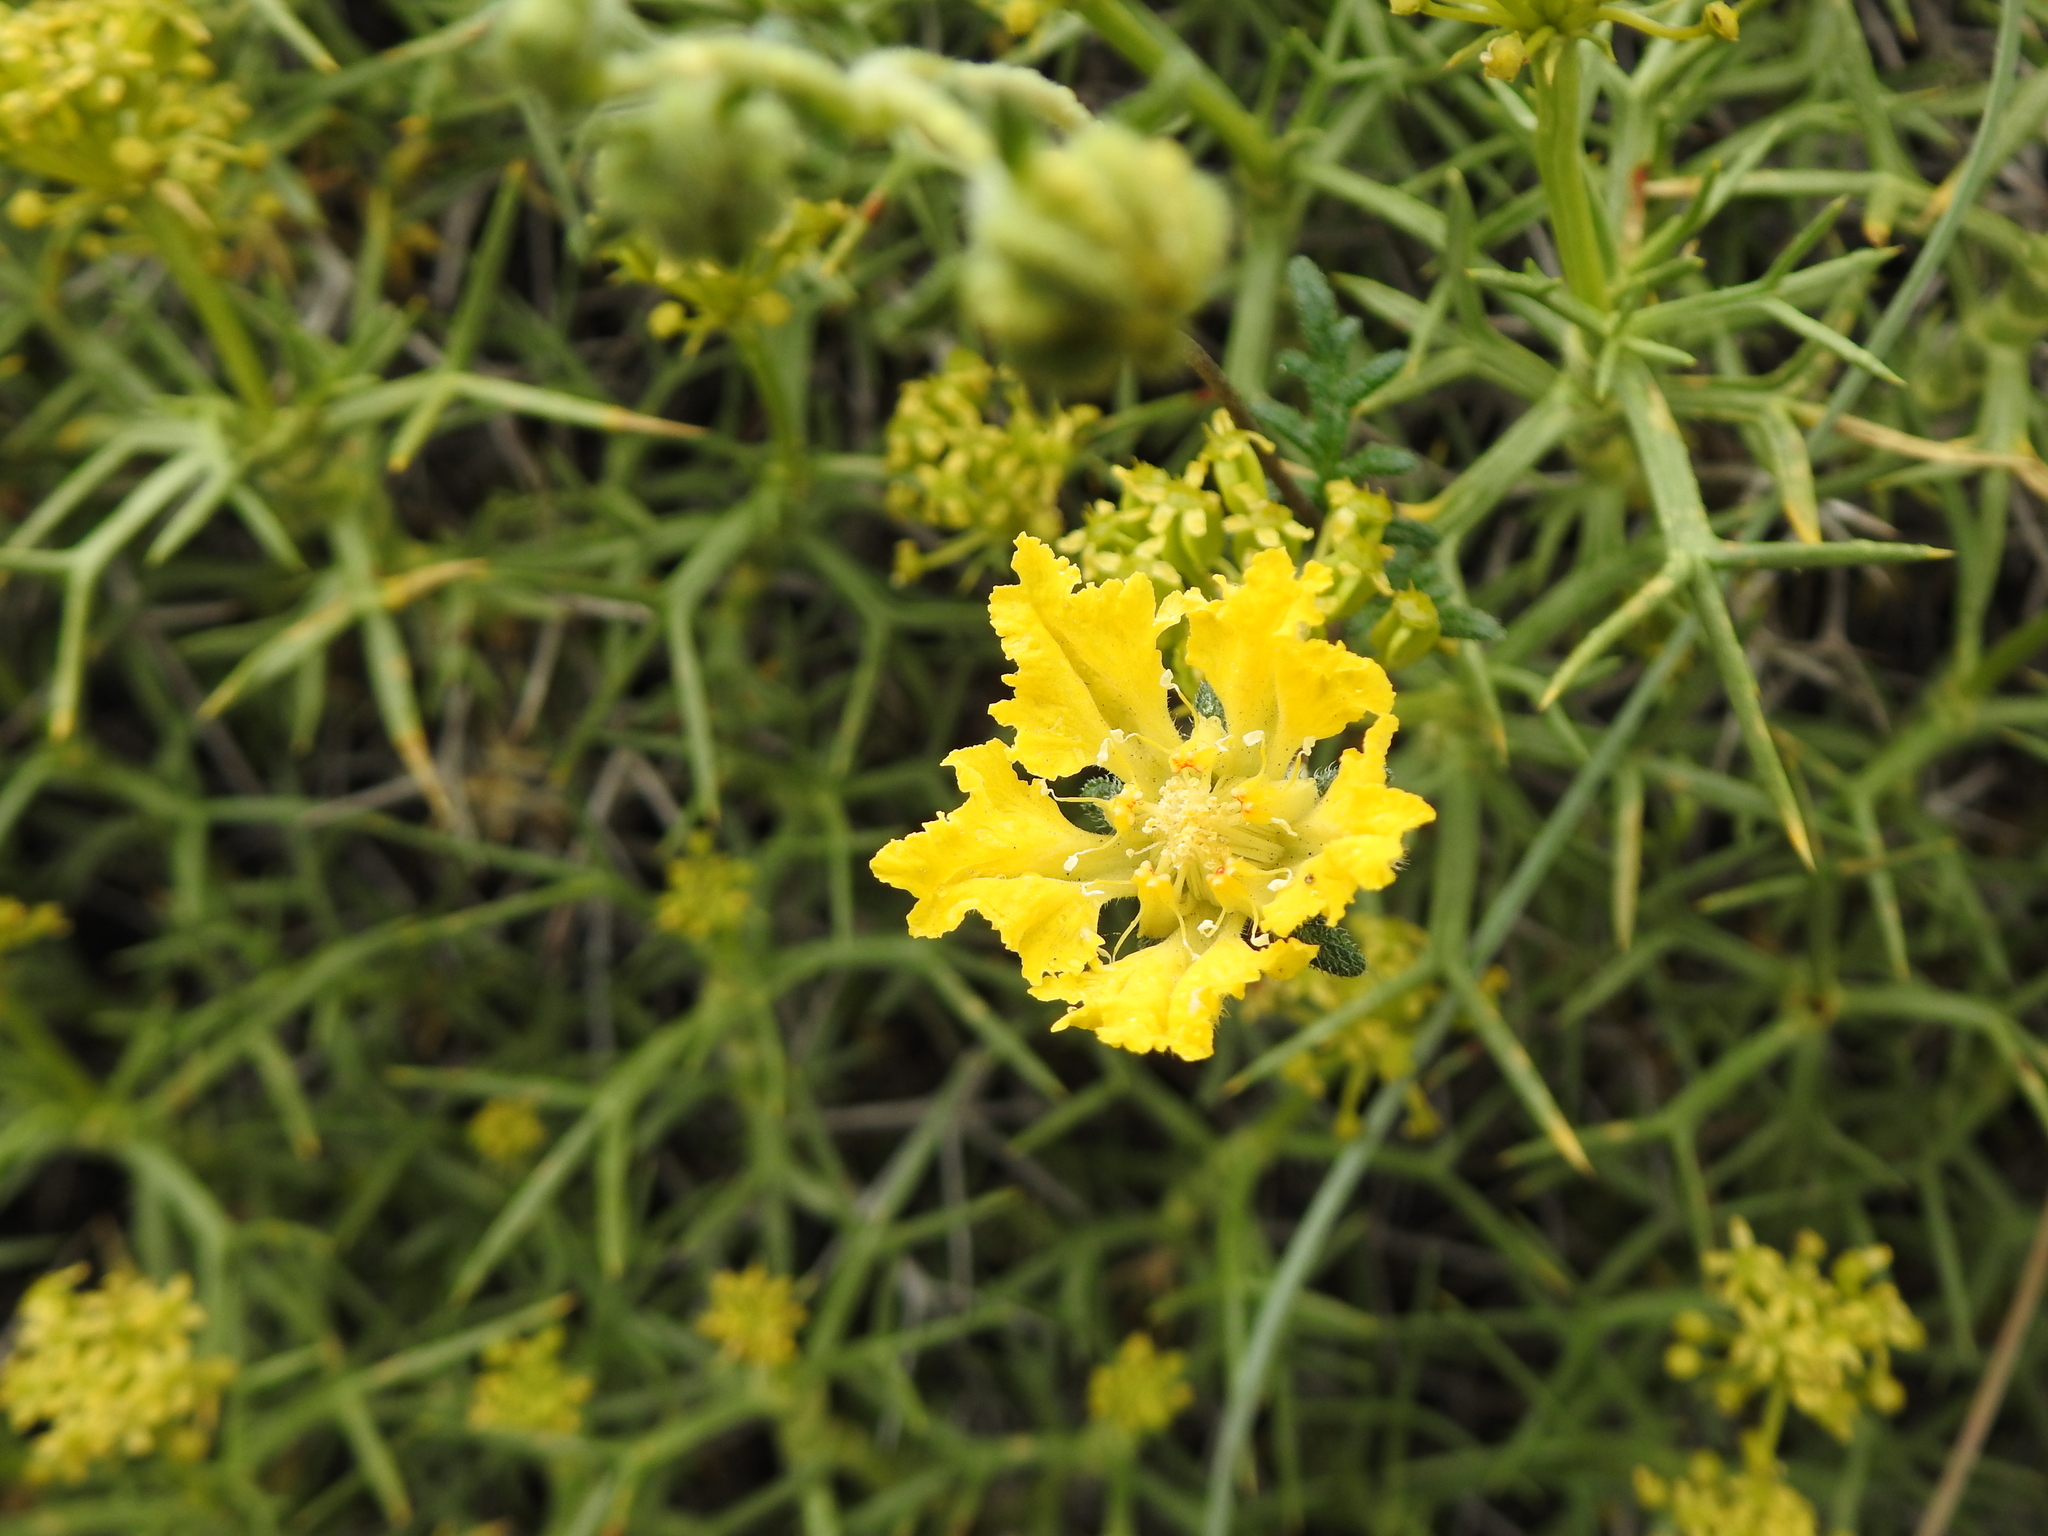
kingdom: Plantae
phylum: Tracheophyta
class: Magnoliopsida
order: Cornales
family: Loasaceae
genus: Pinnasa
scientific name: Pinnasa bergii
